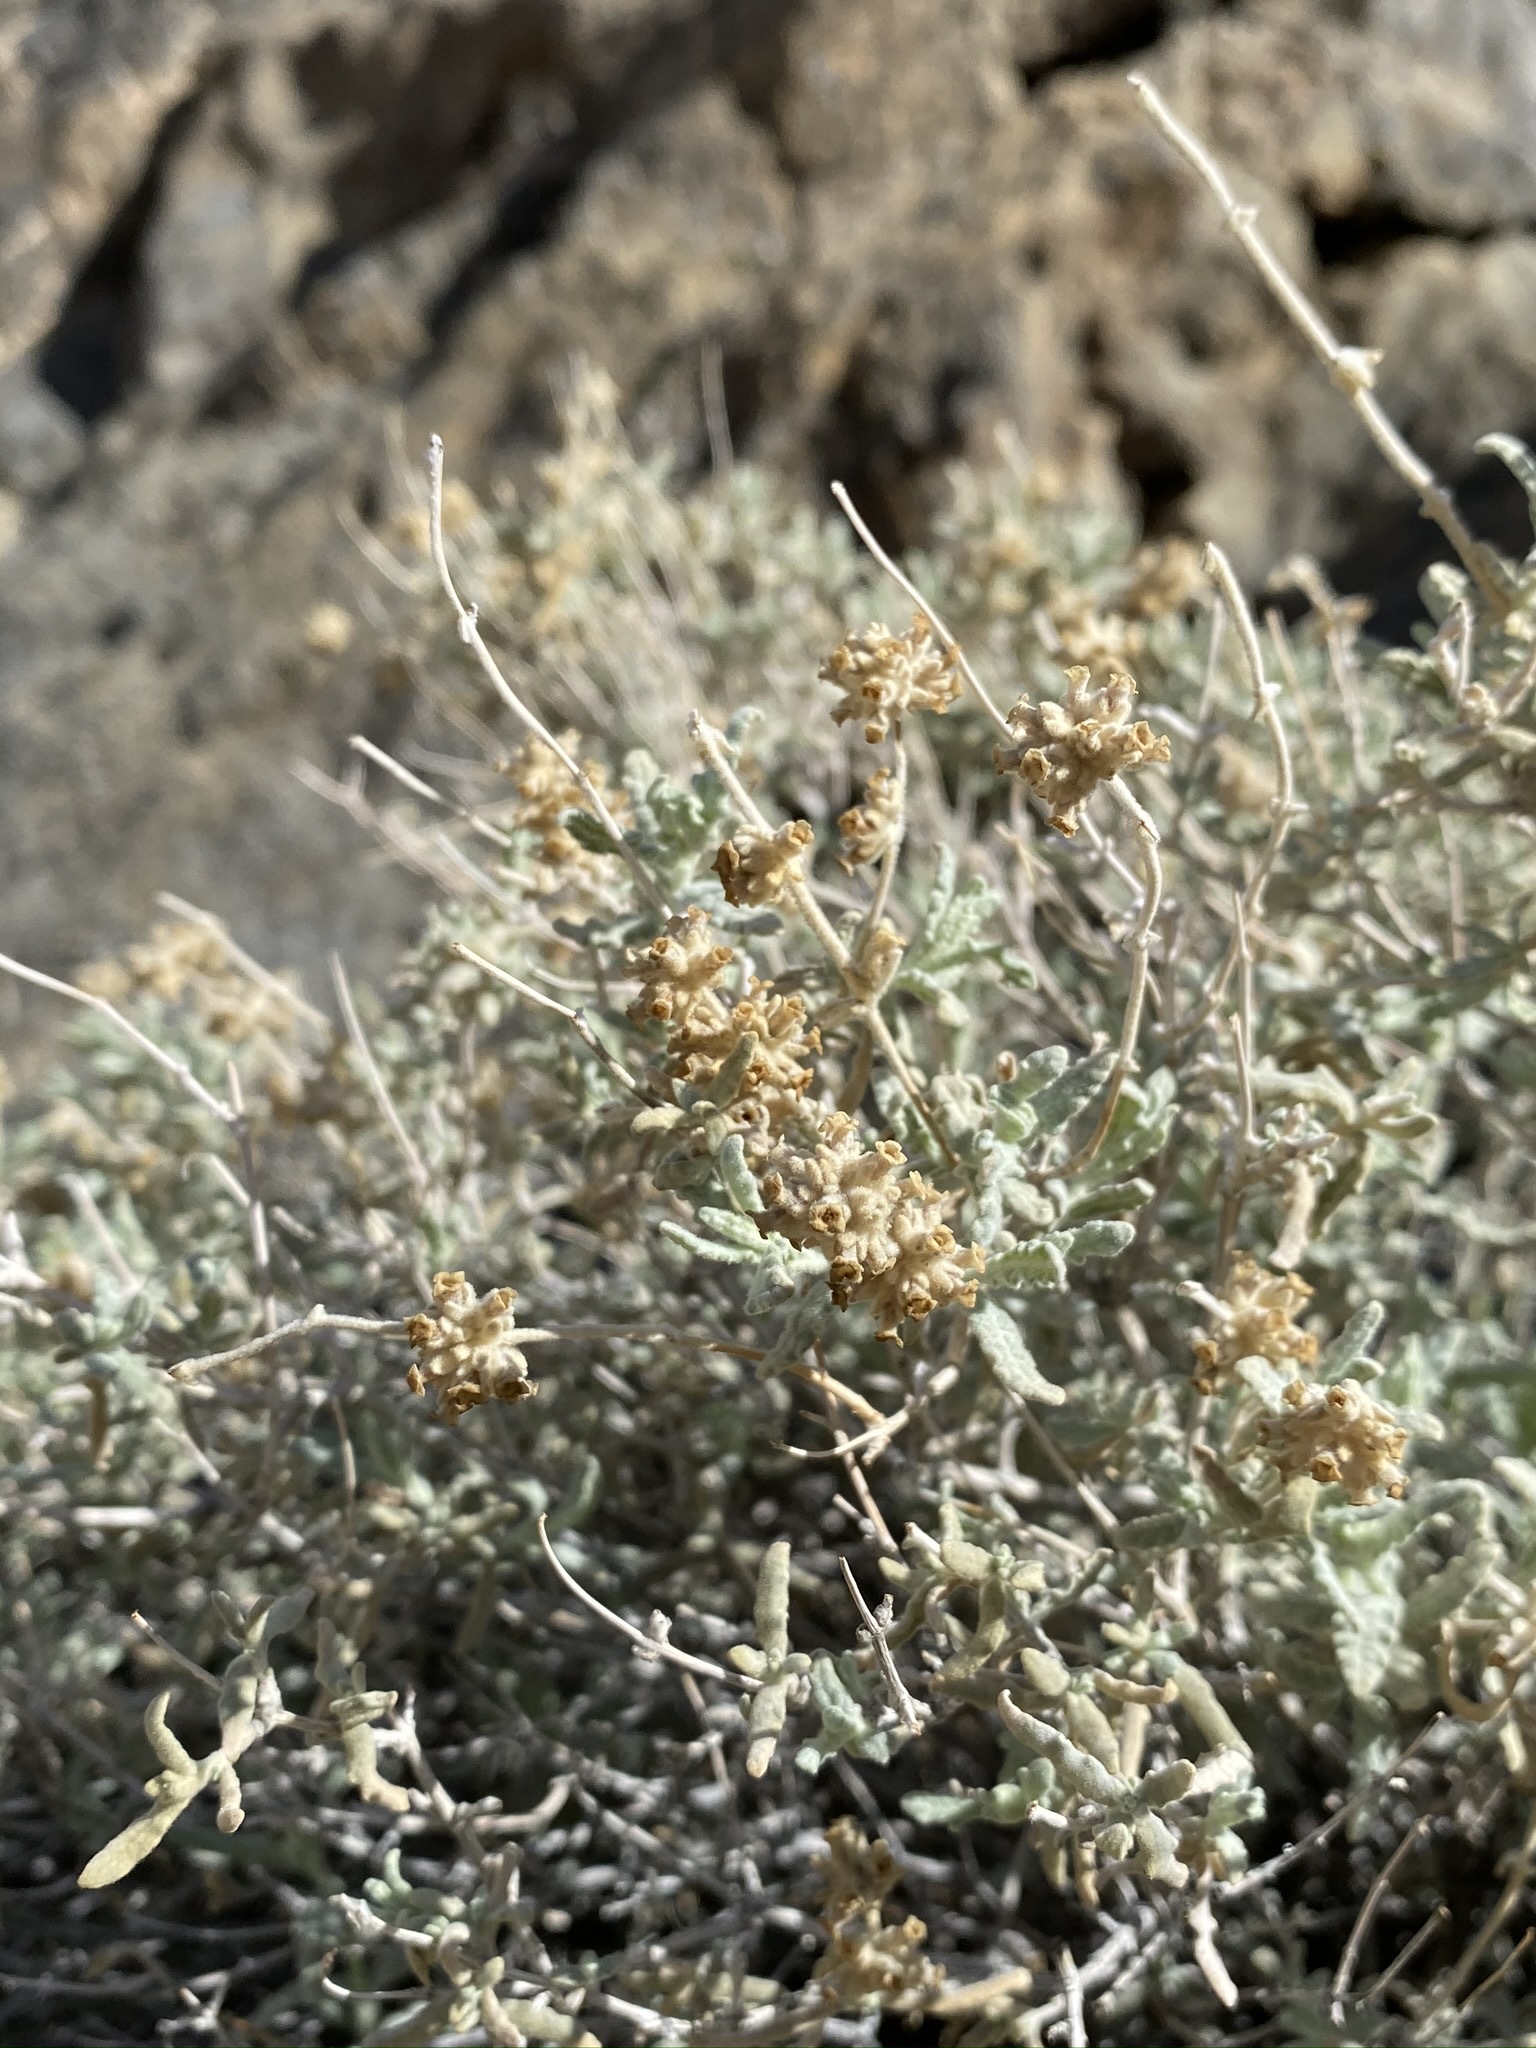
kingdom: Plantae
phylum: Tracheophyta
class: Magnoliopsida
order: Lamiales
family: Scrophulariaceae
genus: Buddleja
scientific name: Buddleja utahensis
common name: Utah butterfly-bush
